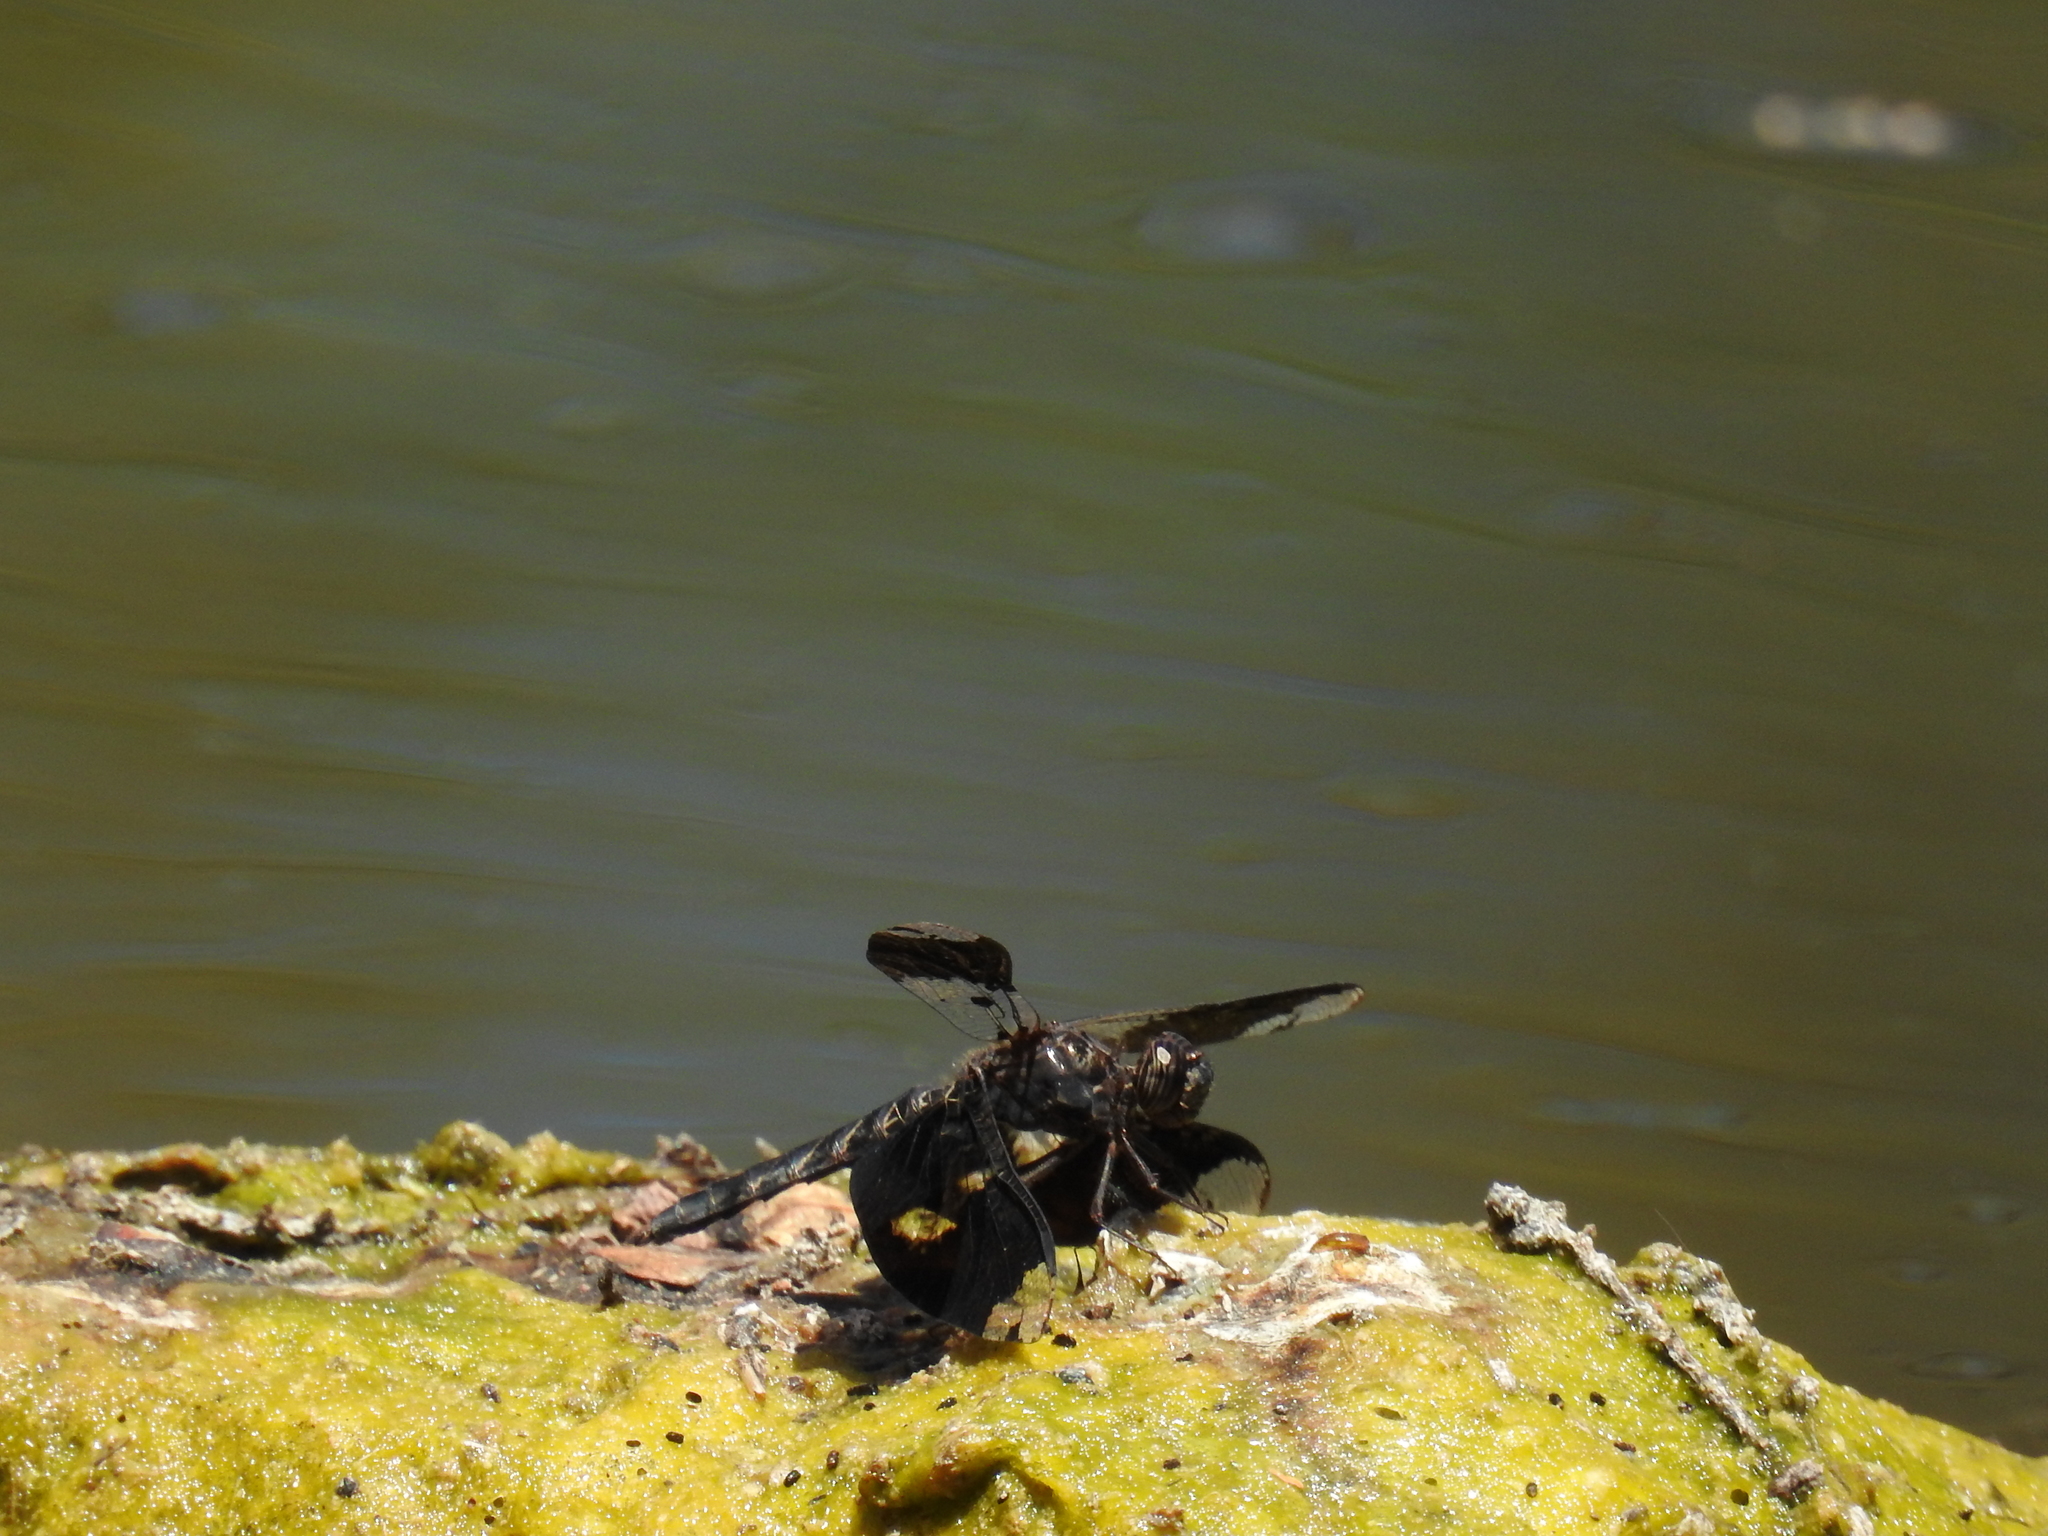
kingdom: Animalia
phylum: Arthropoda
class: Insecta
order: Odonata
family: Libellulidae
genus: Pseudoleon
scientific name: Pseudoleon superbus
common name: Filigree skimmer
